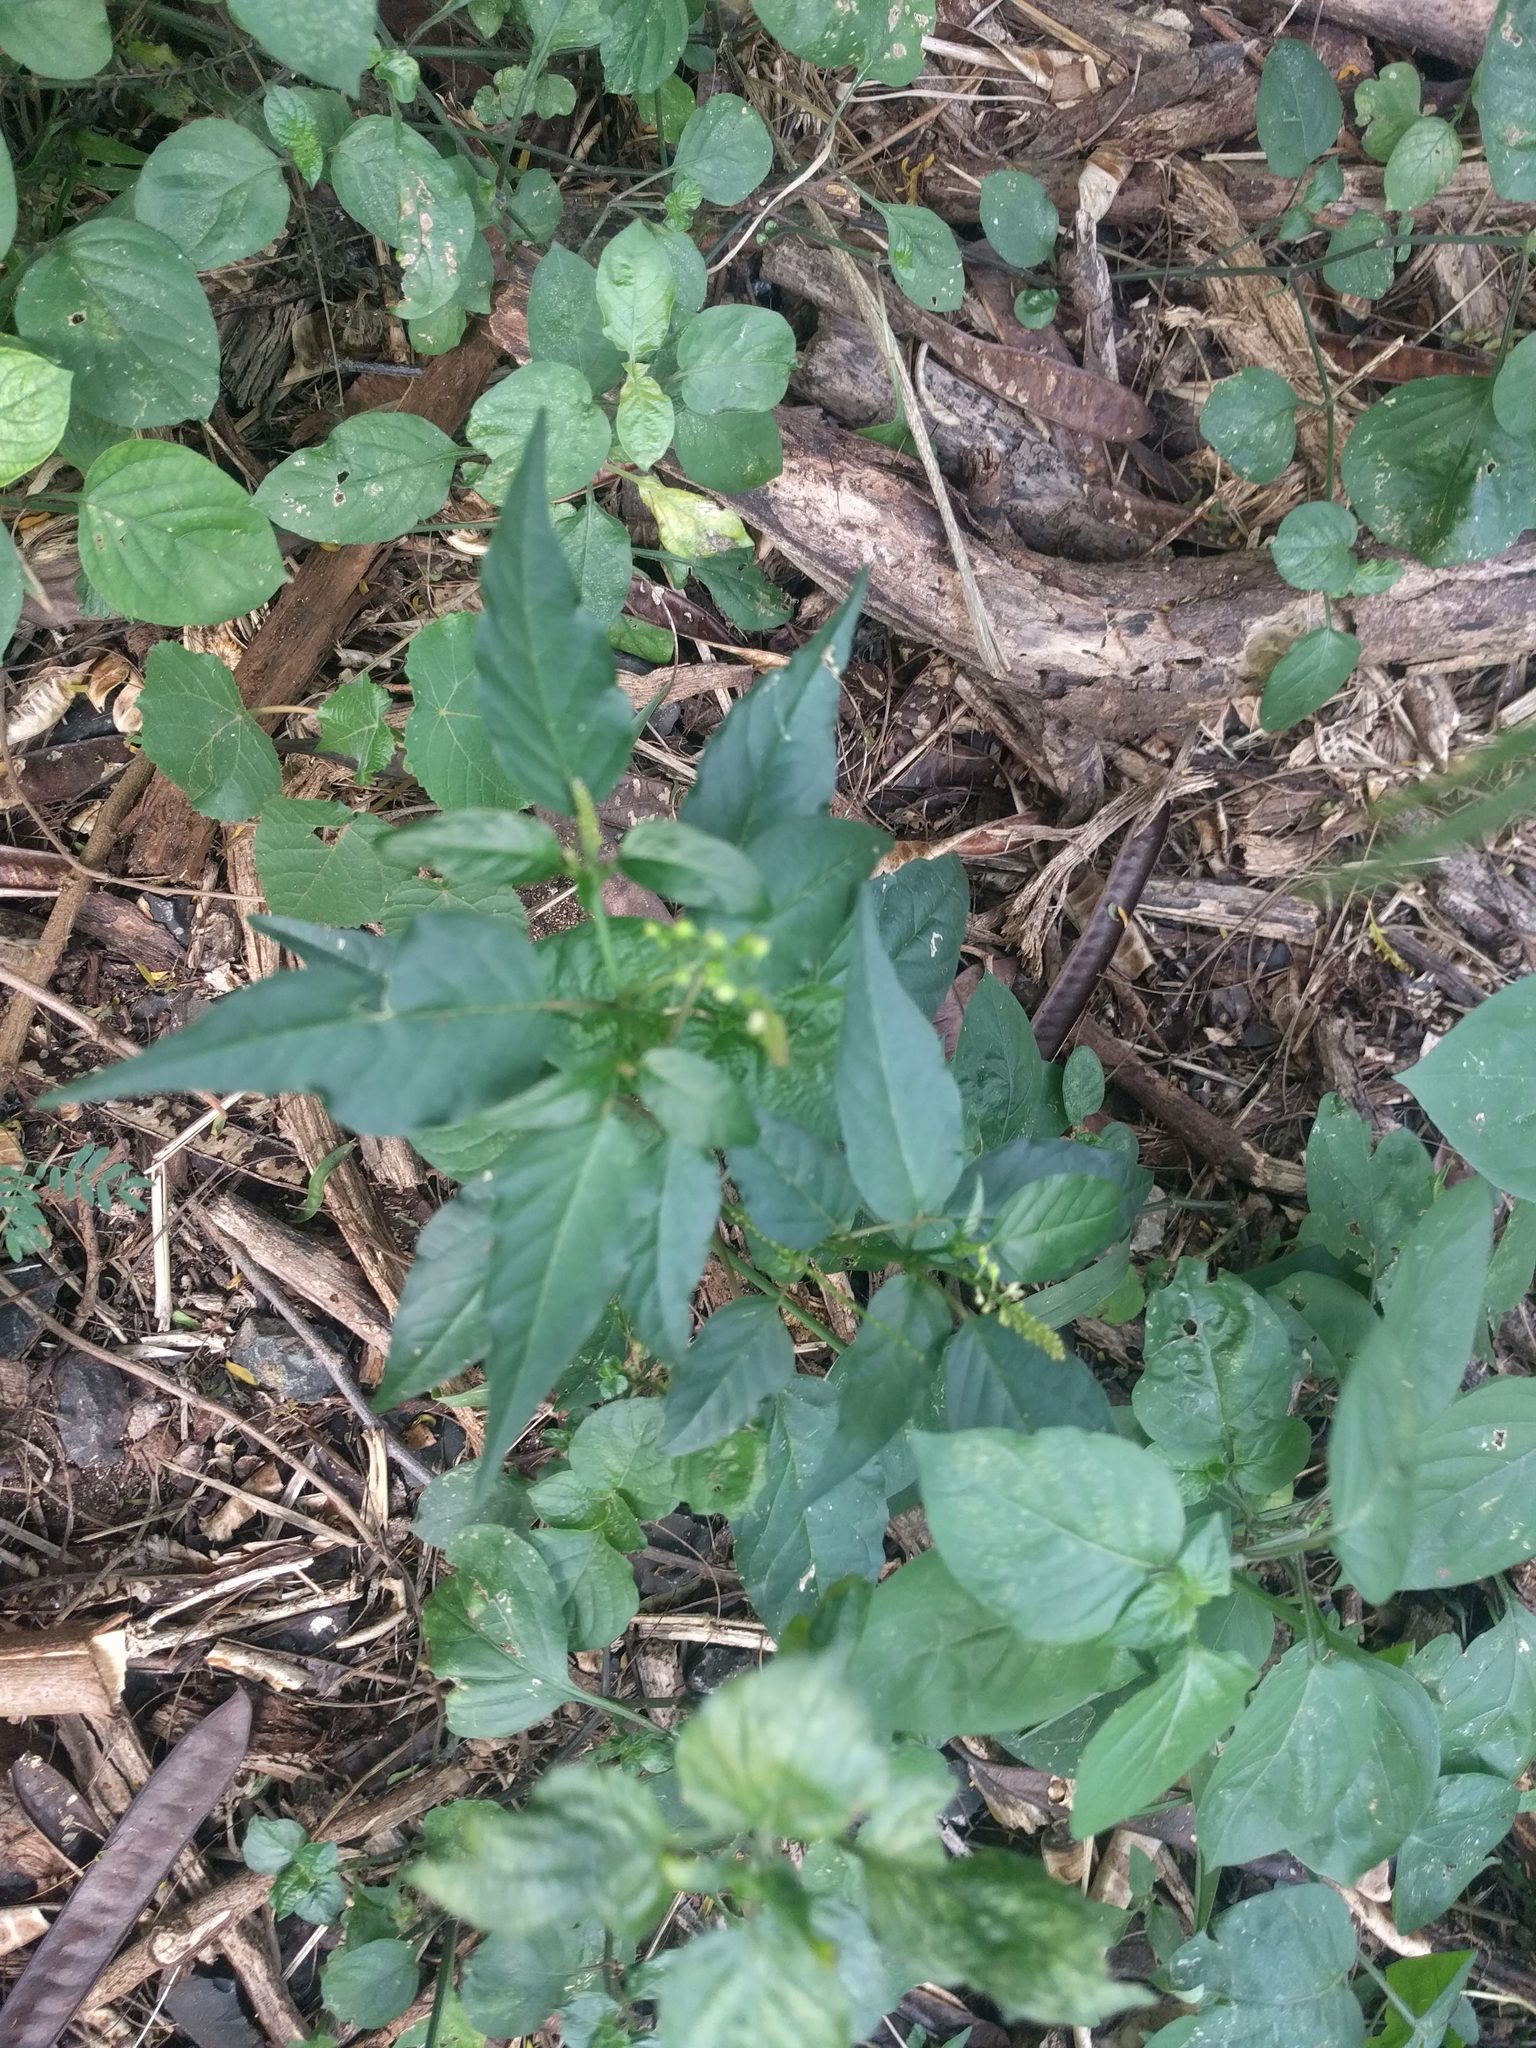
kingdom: Plantae
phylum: Tracheophyta
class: Magnoliopsida
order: Caryophyllales
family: Phytolaccaceae
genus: Rivina
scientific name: Rivina humilis
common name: Rougeplant
